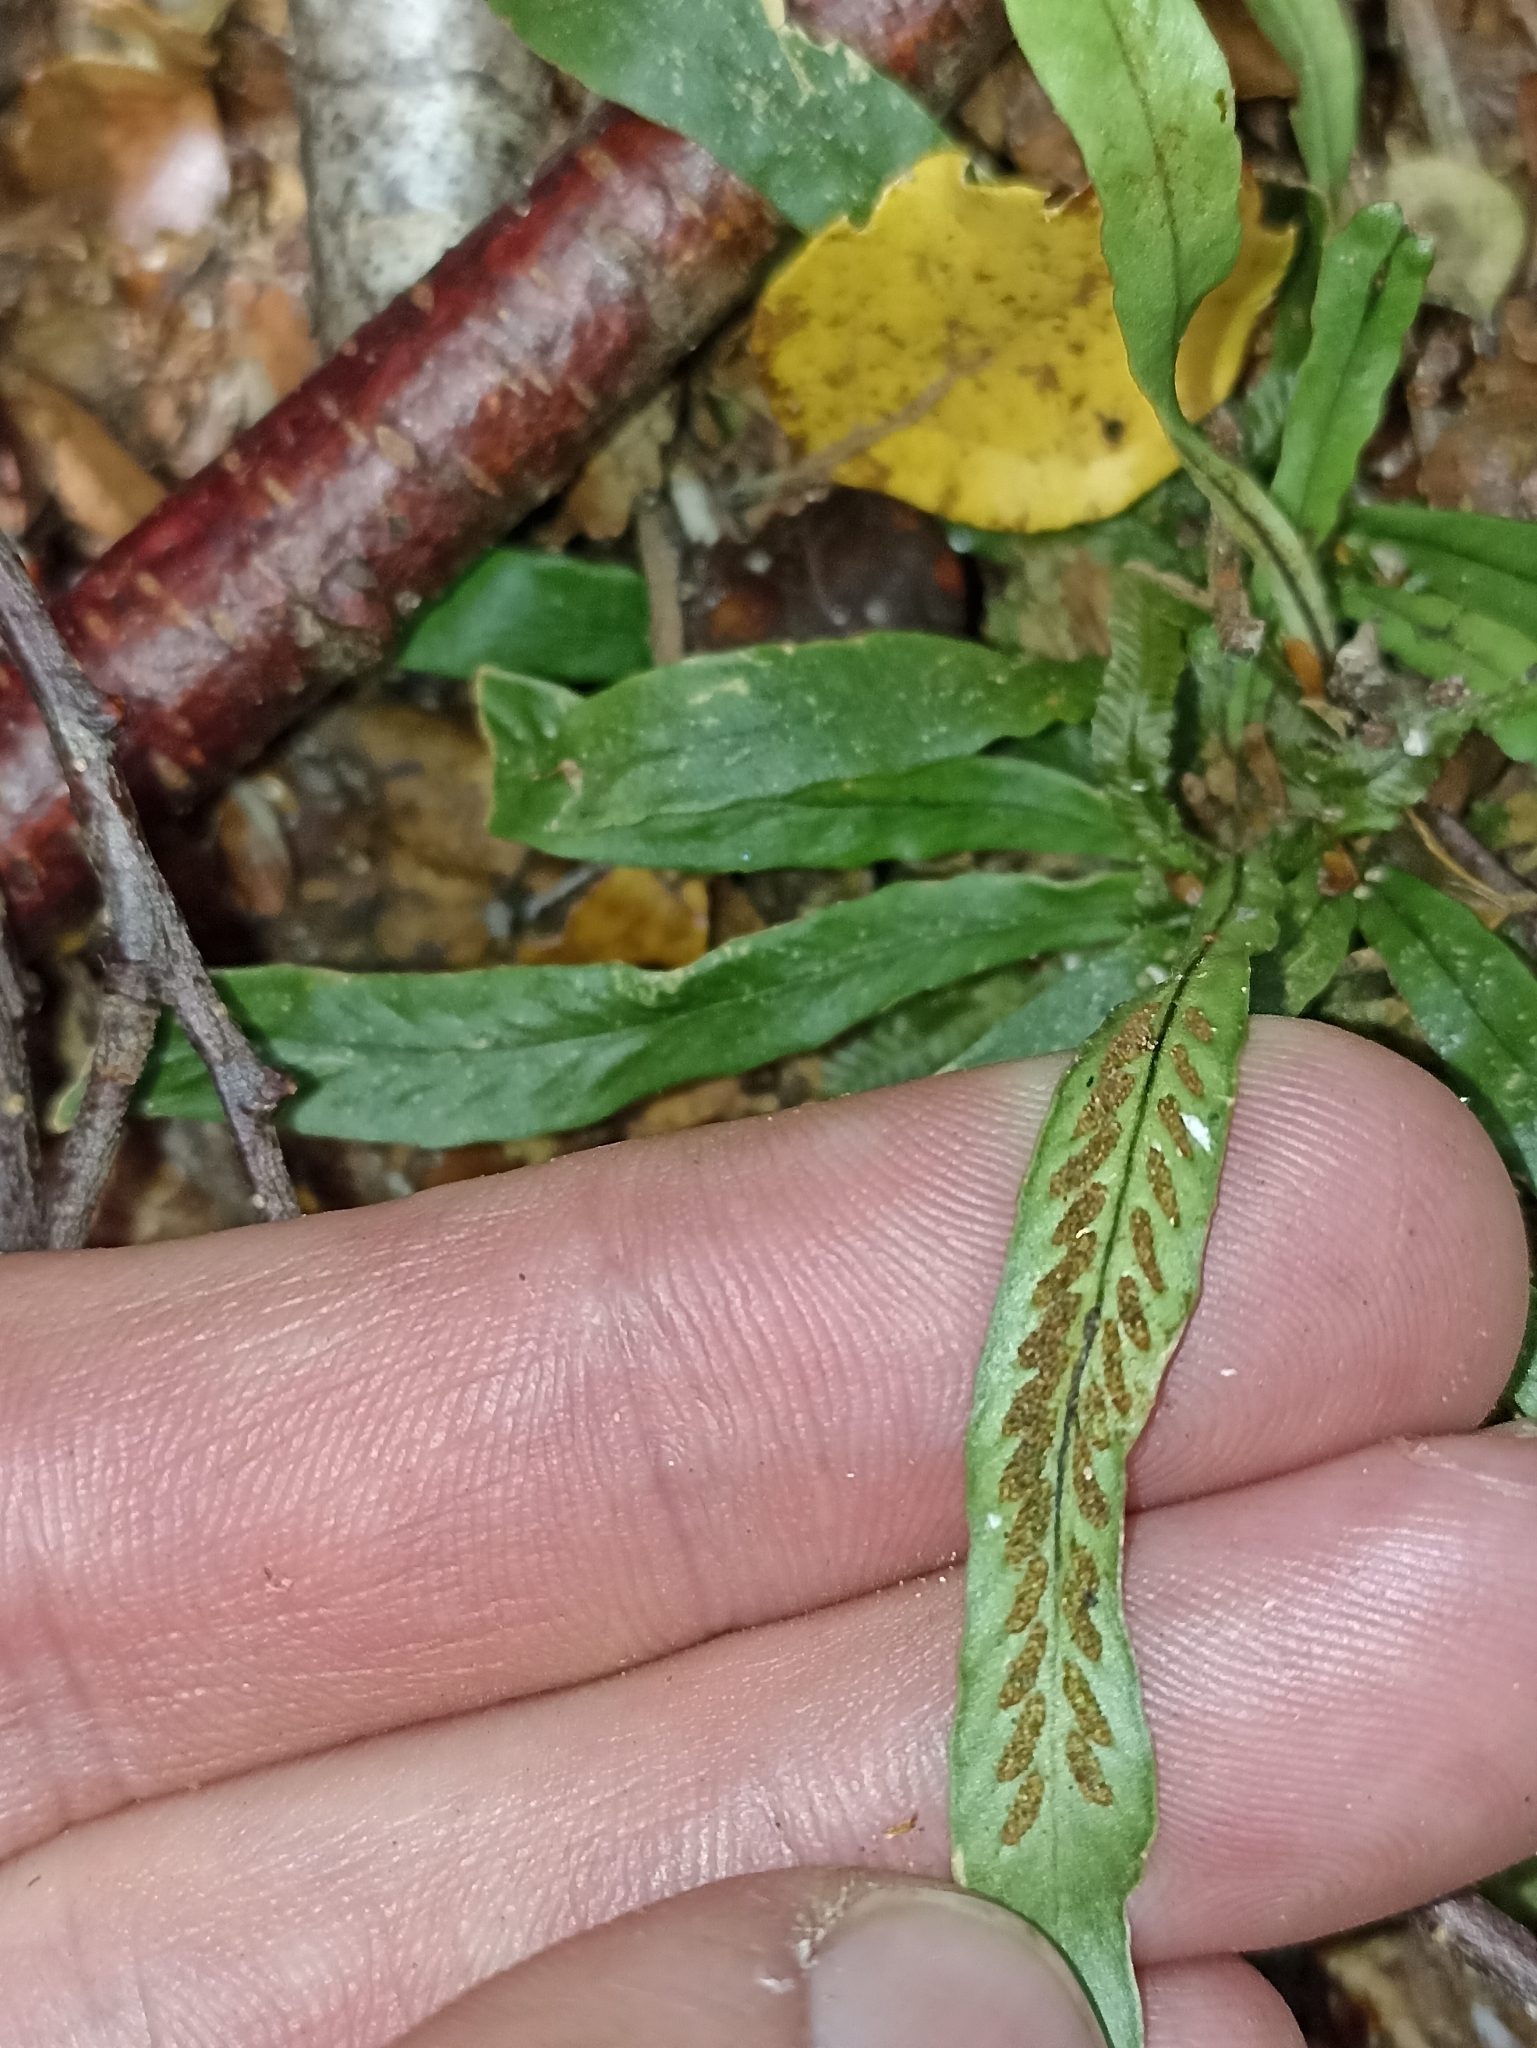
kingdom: Plantae
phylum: Tracheophyta
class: Polypodiopsida
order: Polypodiales
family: Polypodiaceae
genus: Notogrammitis
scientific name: Notogrammitis billardierei
